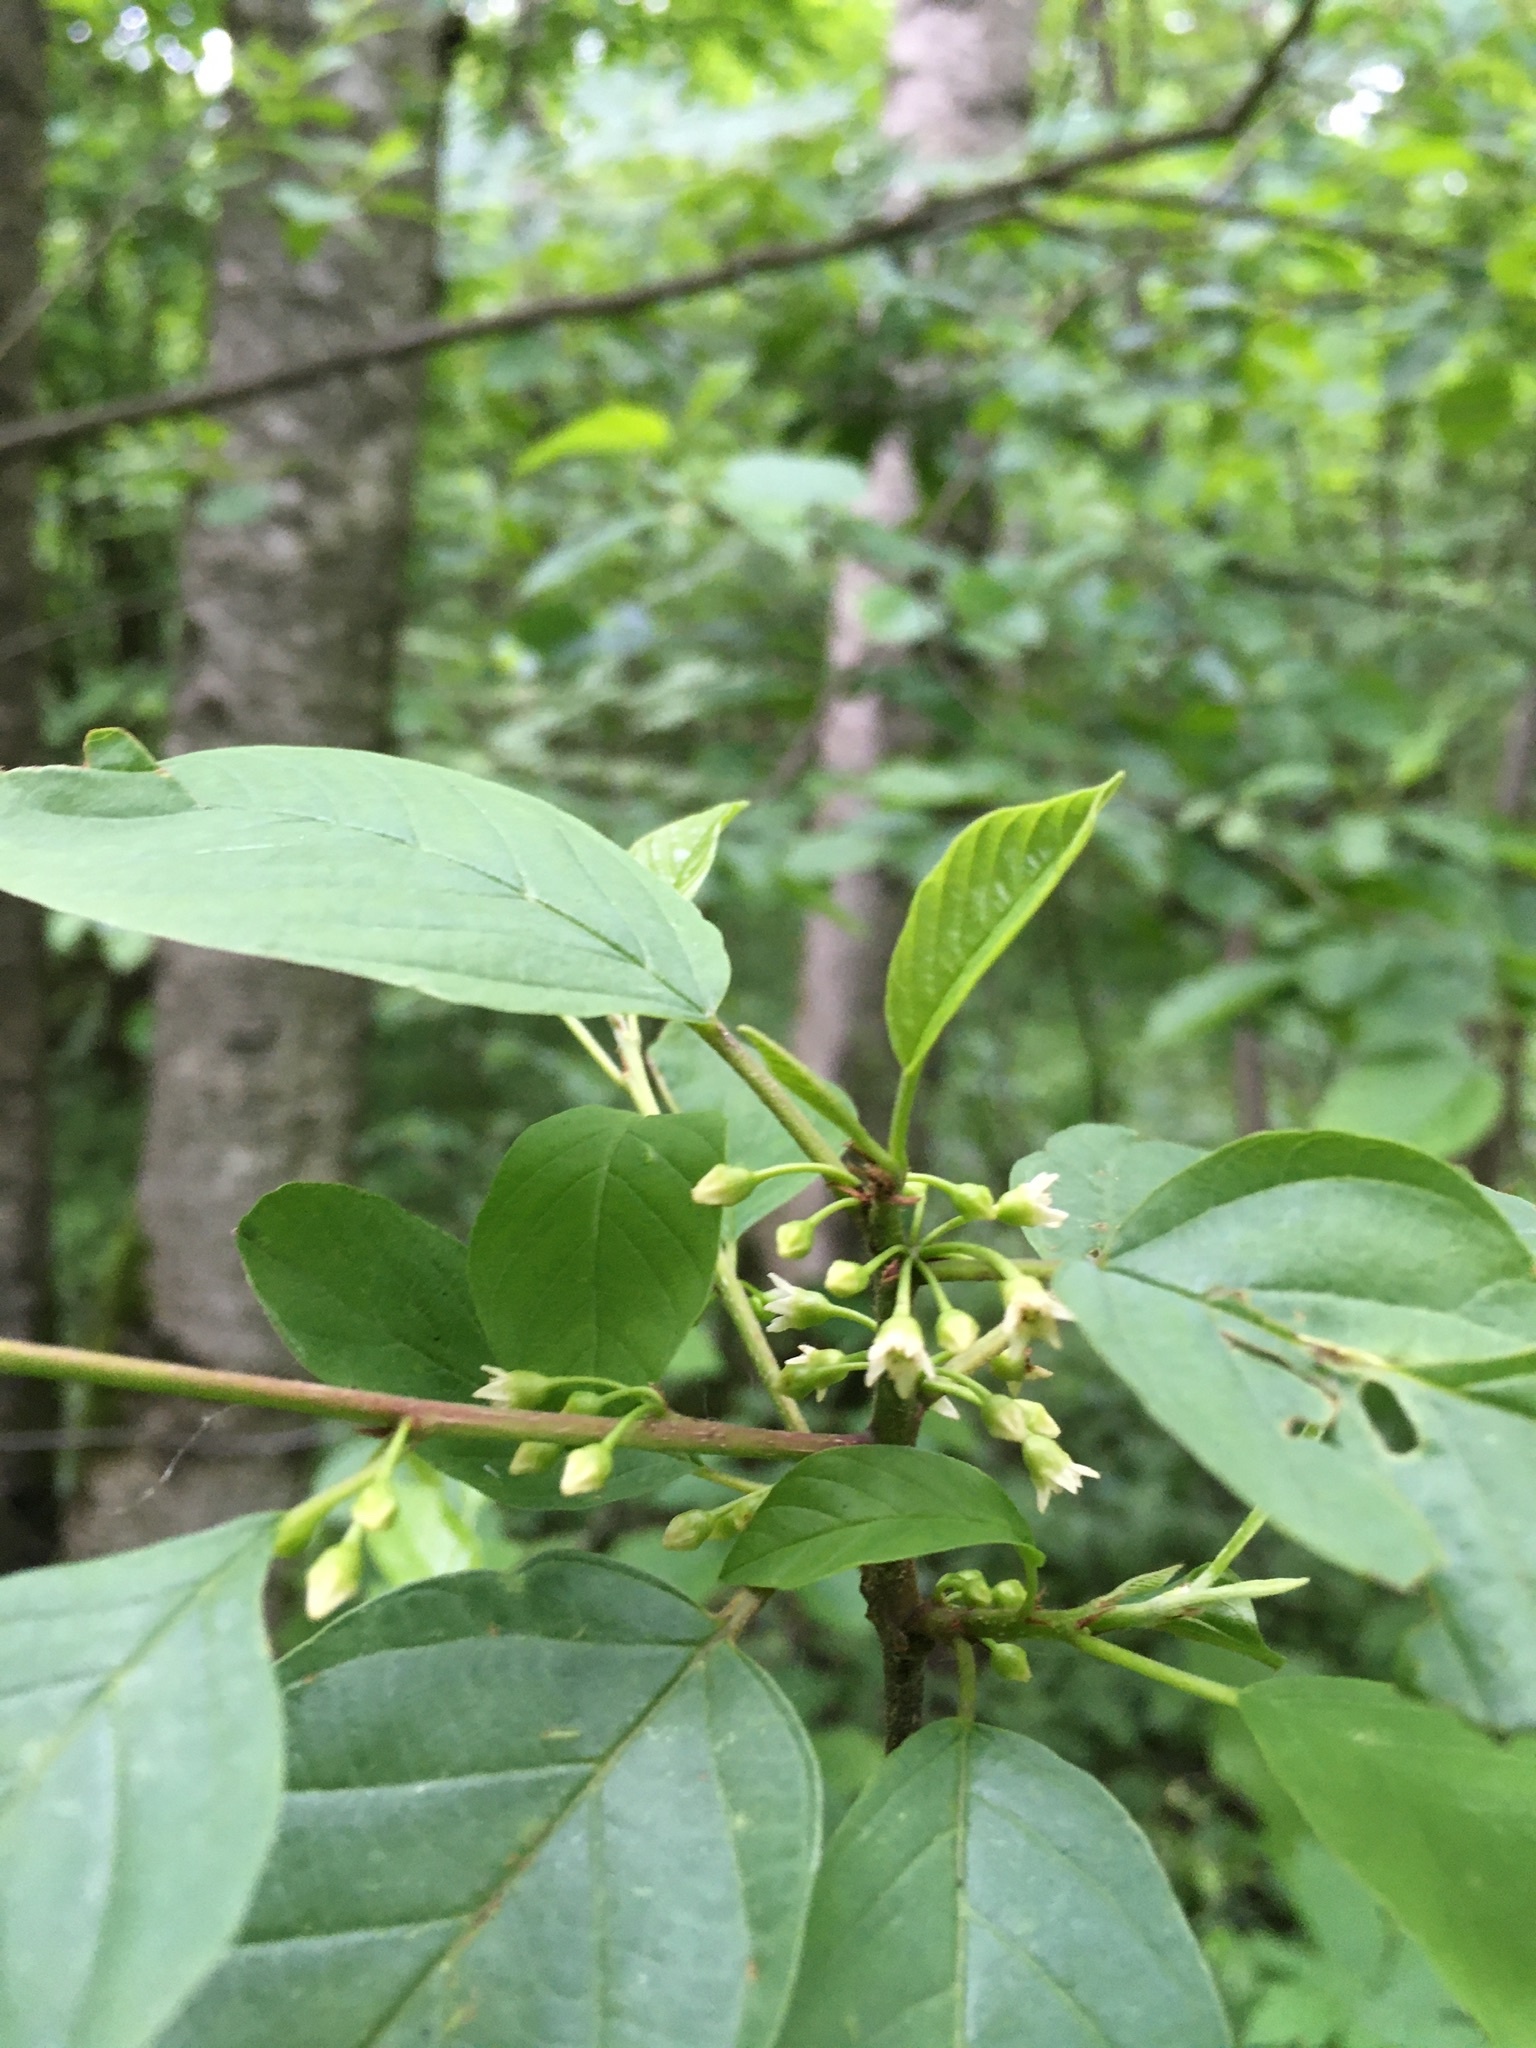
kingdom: Plantae
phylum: Tracheophyta
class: Magnoliopsida
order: Rosales
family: Rhamnaceae
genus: Frangula
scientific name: Frangula alnus
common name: Alder buckthorn
